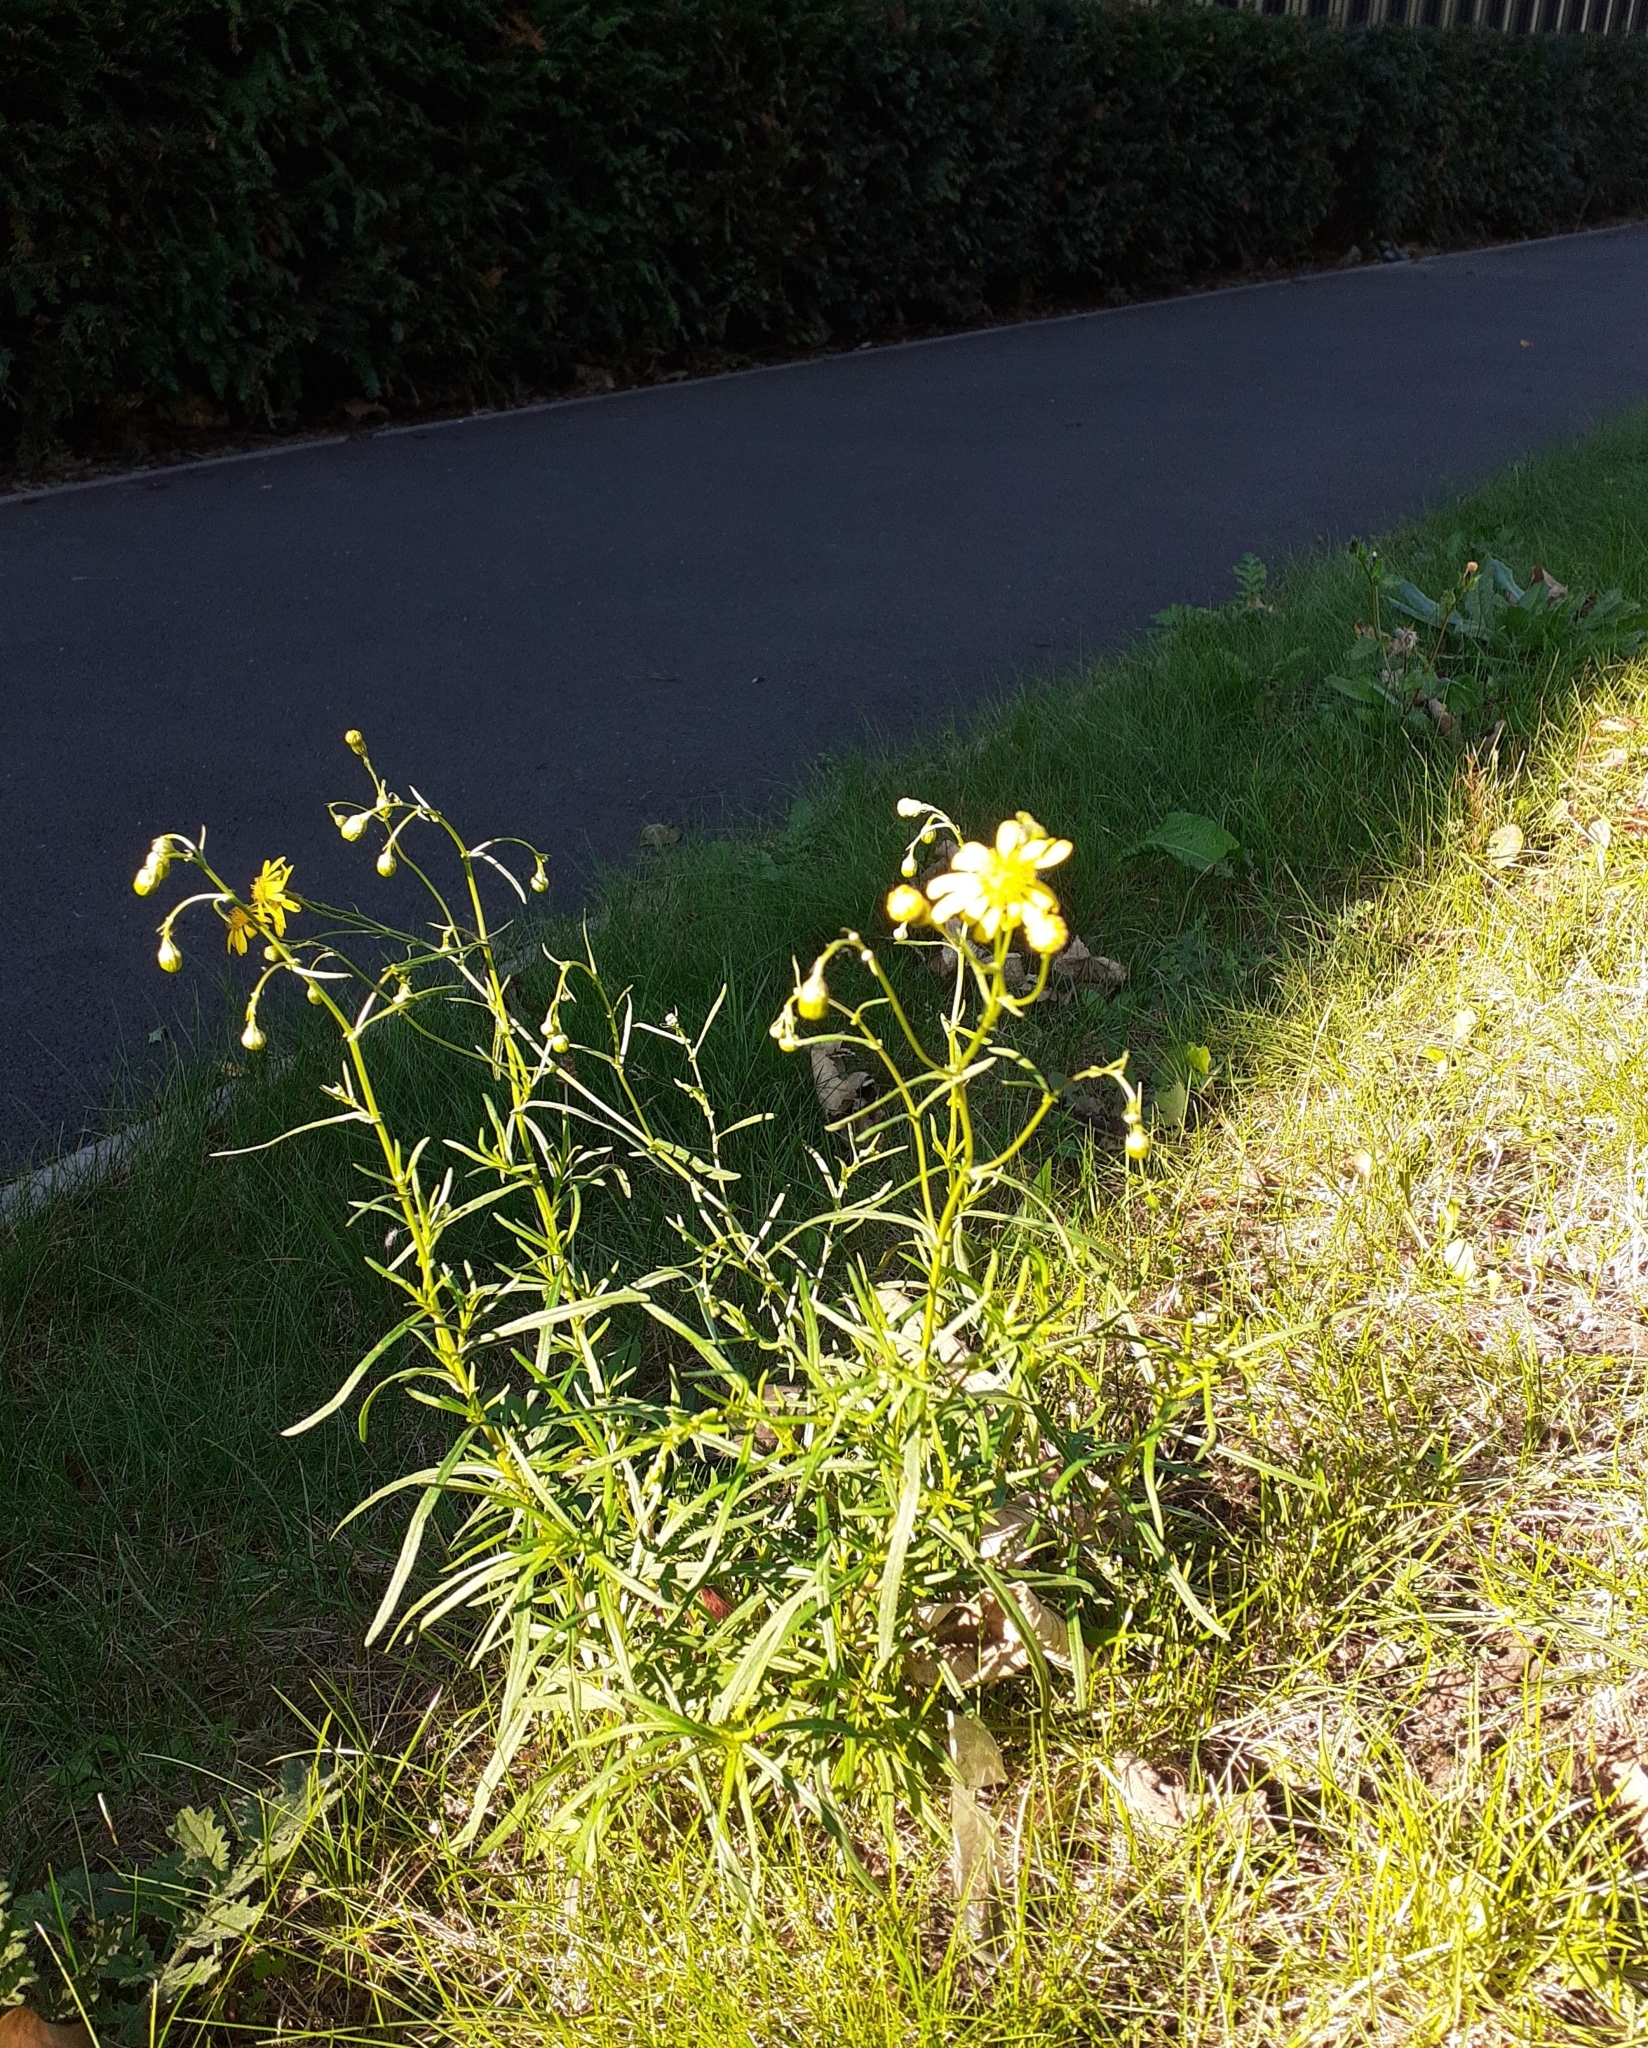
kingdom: Plantae
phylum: Tracheophyta
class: Magnoliopsida
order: Asterales
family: Asteraceae
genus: Senecio
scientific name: Senecio inaequidens
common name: Narrow-leaved ragwort
